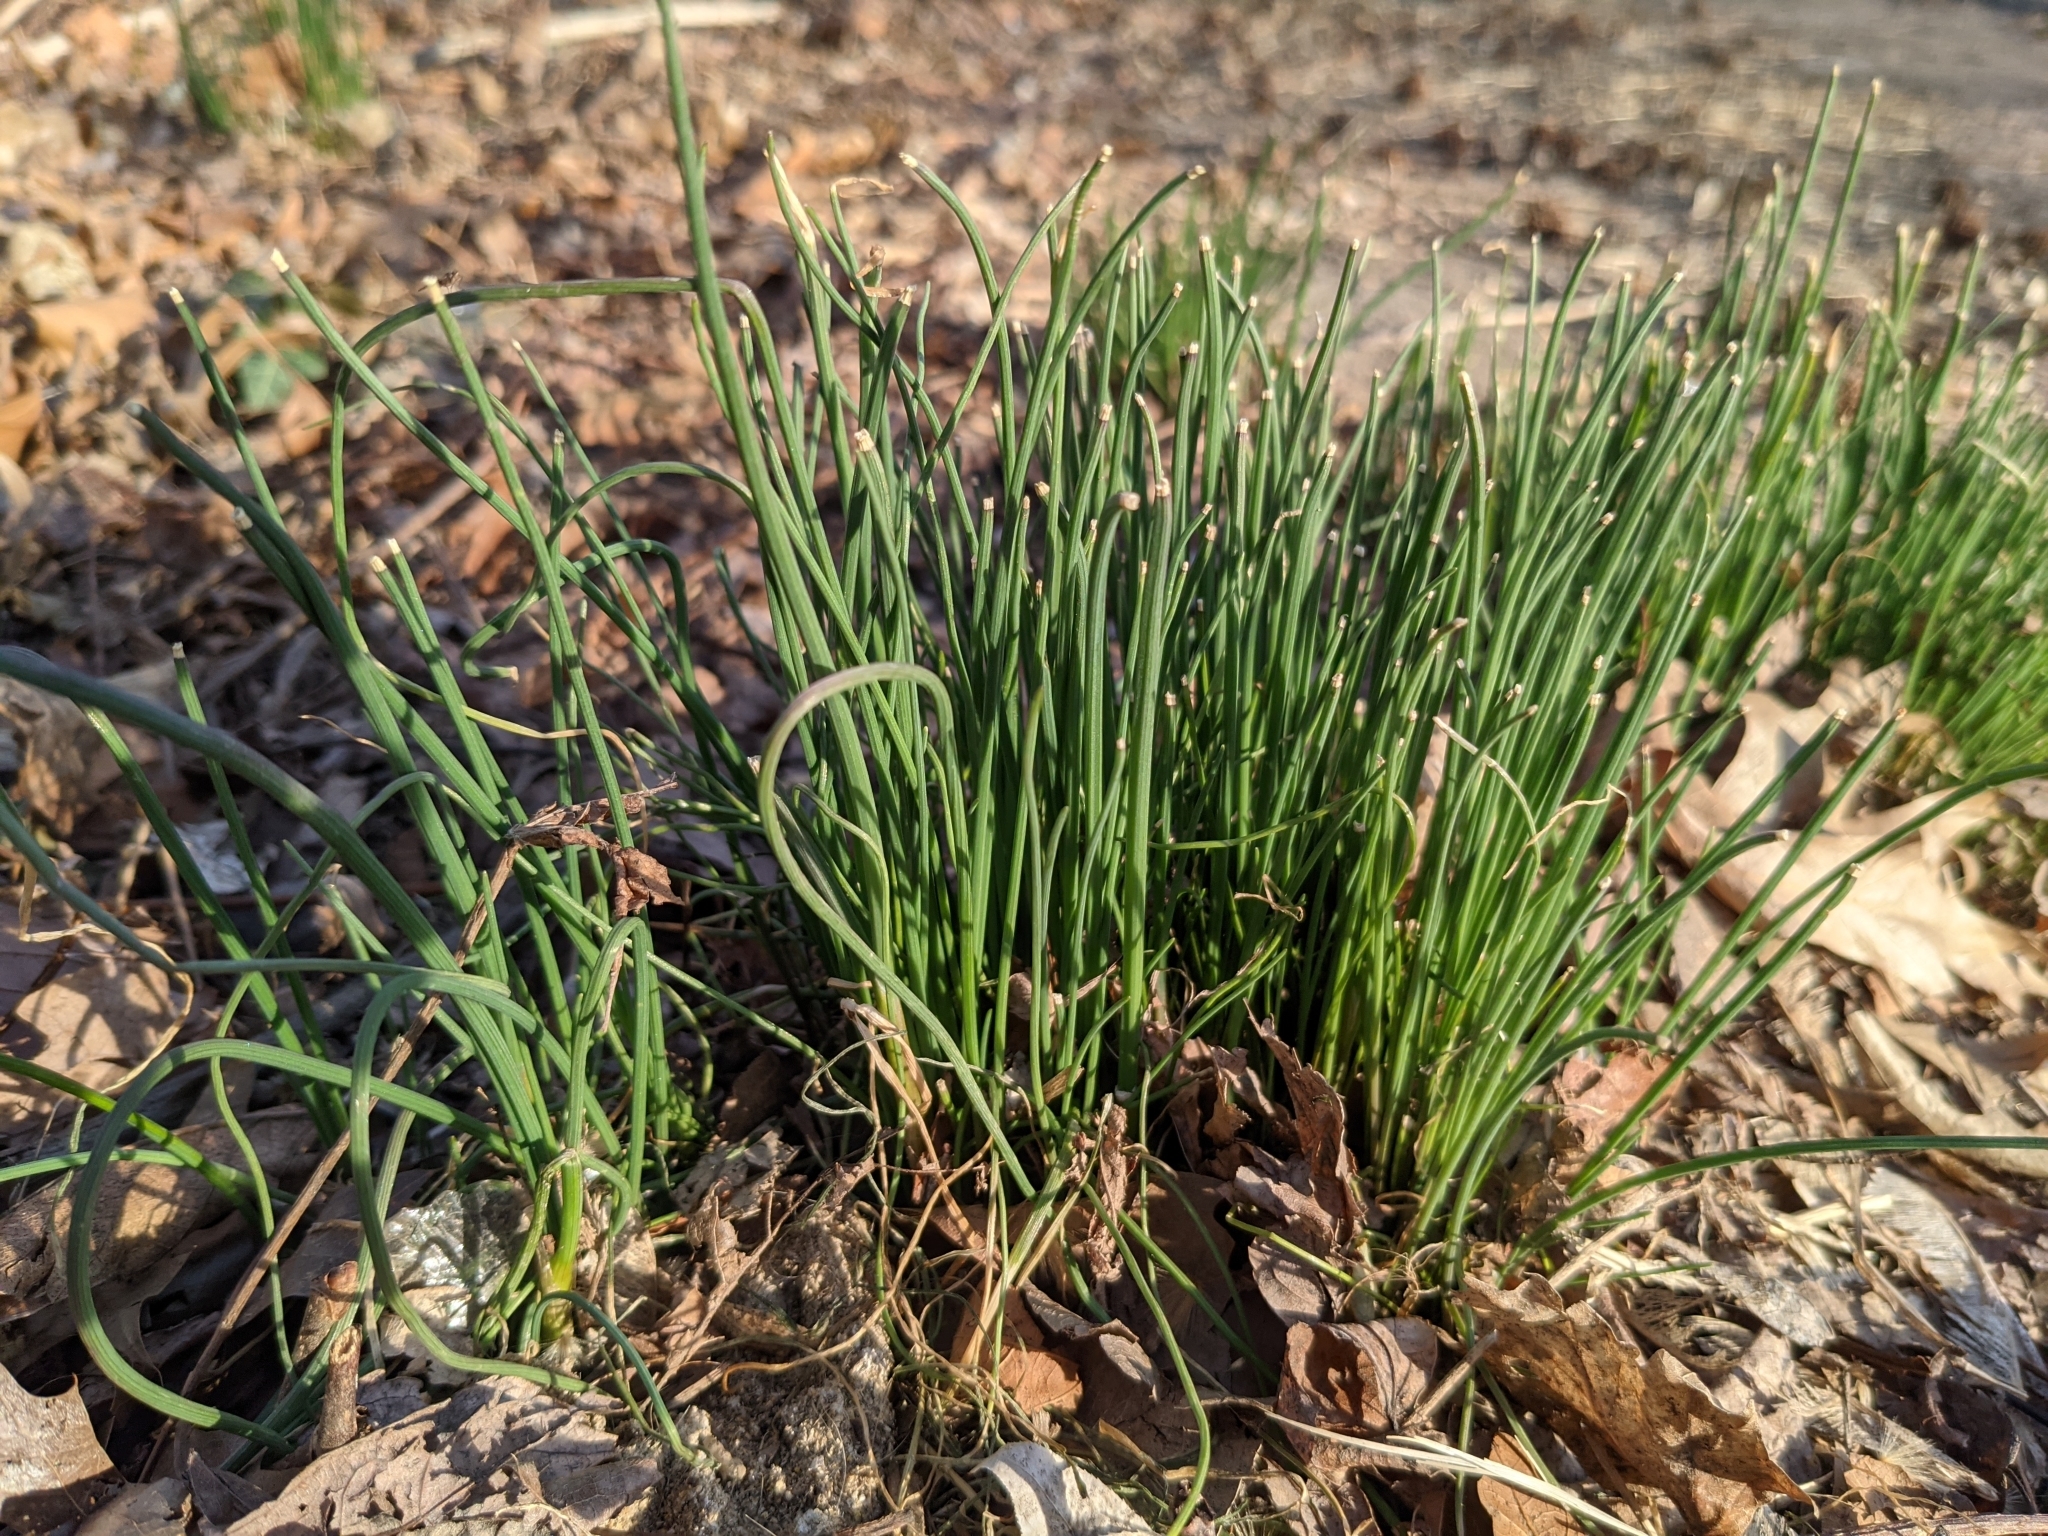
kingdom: Plantae
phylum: Tracheophyta
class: Liliopsida
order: Asparagales
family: Amaryllidaceae
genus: Allium
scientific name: Allium vineale
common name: Crow garlic
